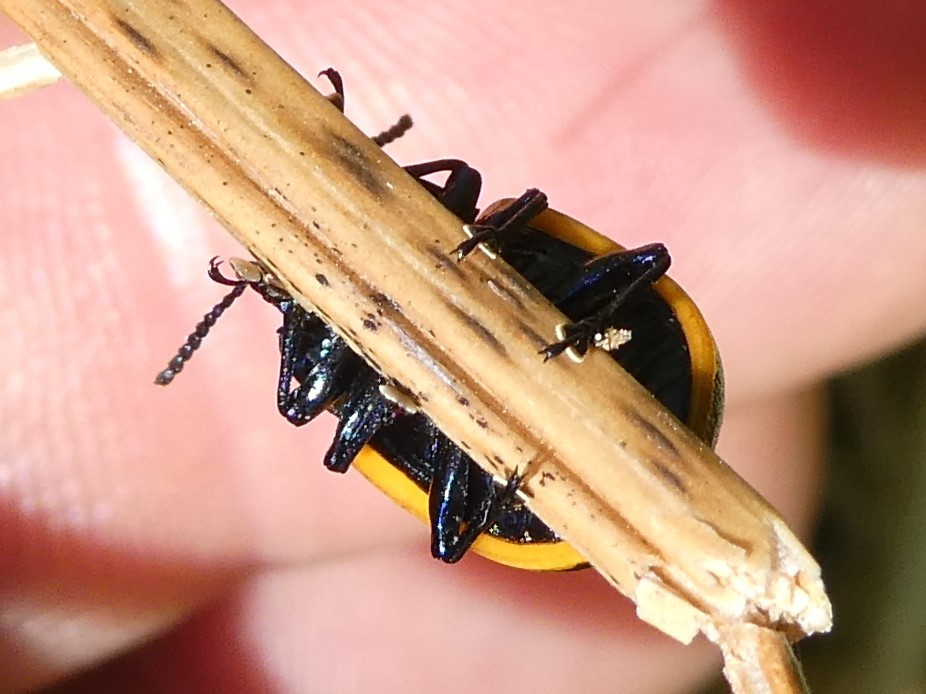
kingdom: Animalia
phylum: Arthropoda
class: Insecta
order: Coleoptera
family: Chrysomelidae
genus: Labidomera
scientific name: Labidomera clivicollis
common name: Swamp milkweed leaf beetle
